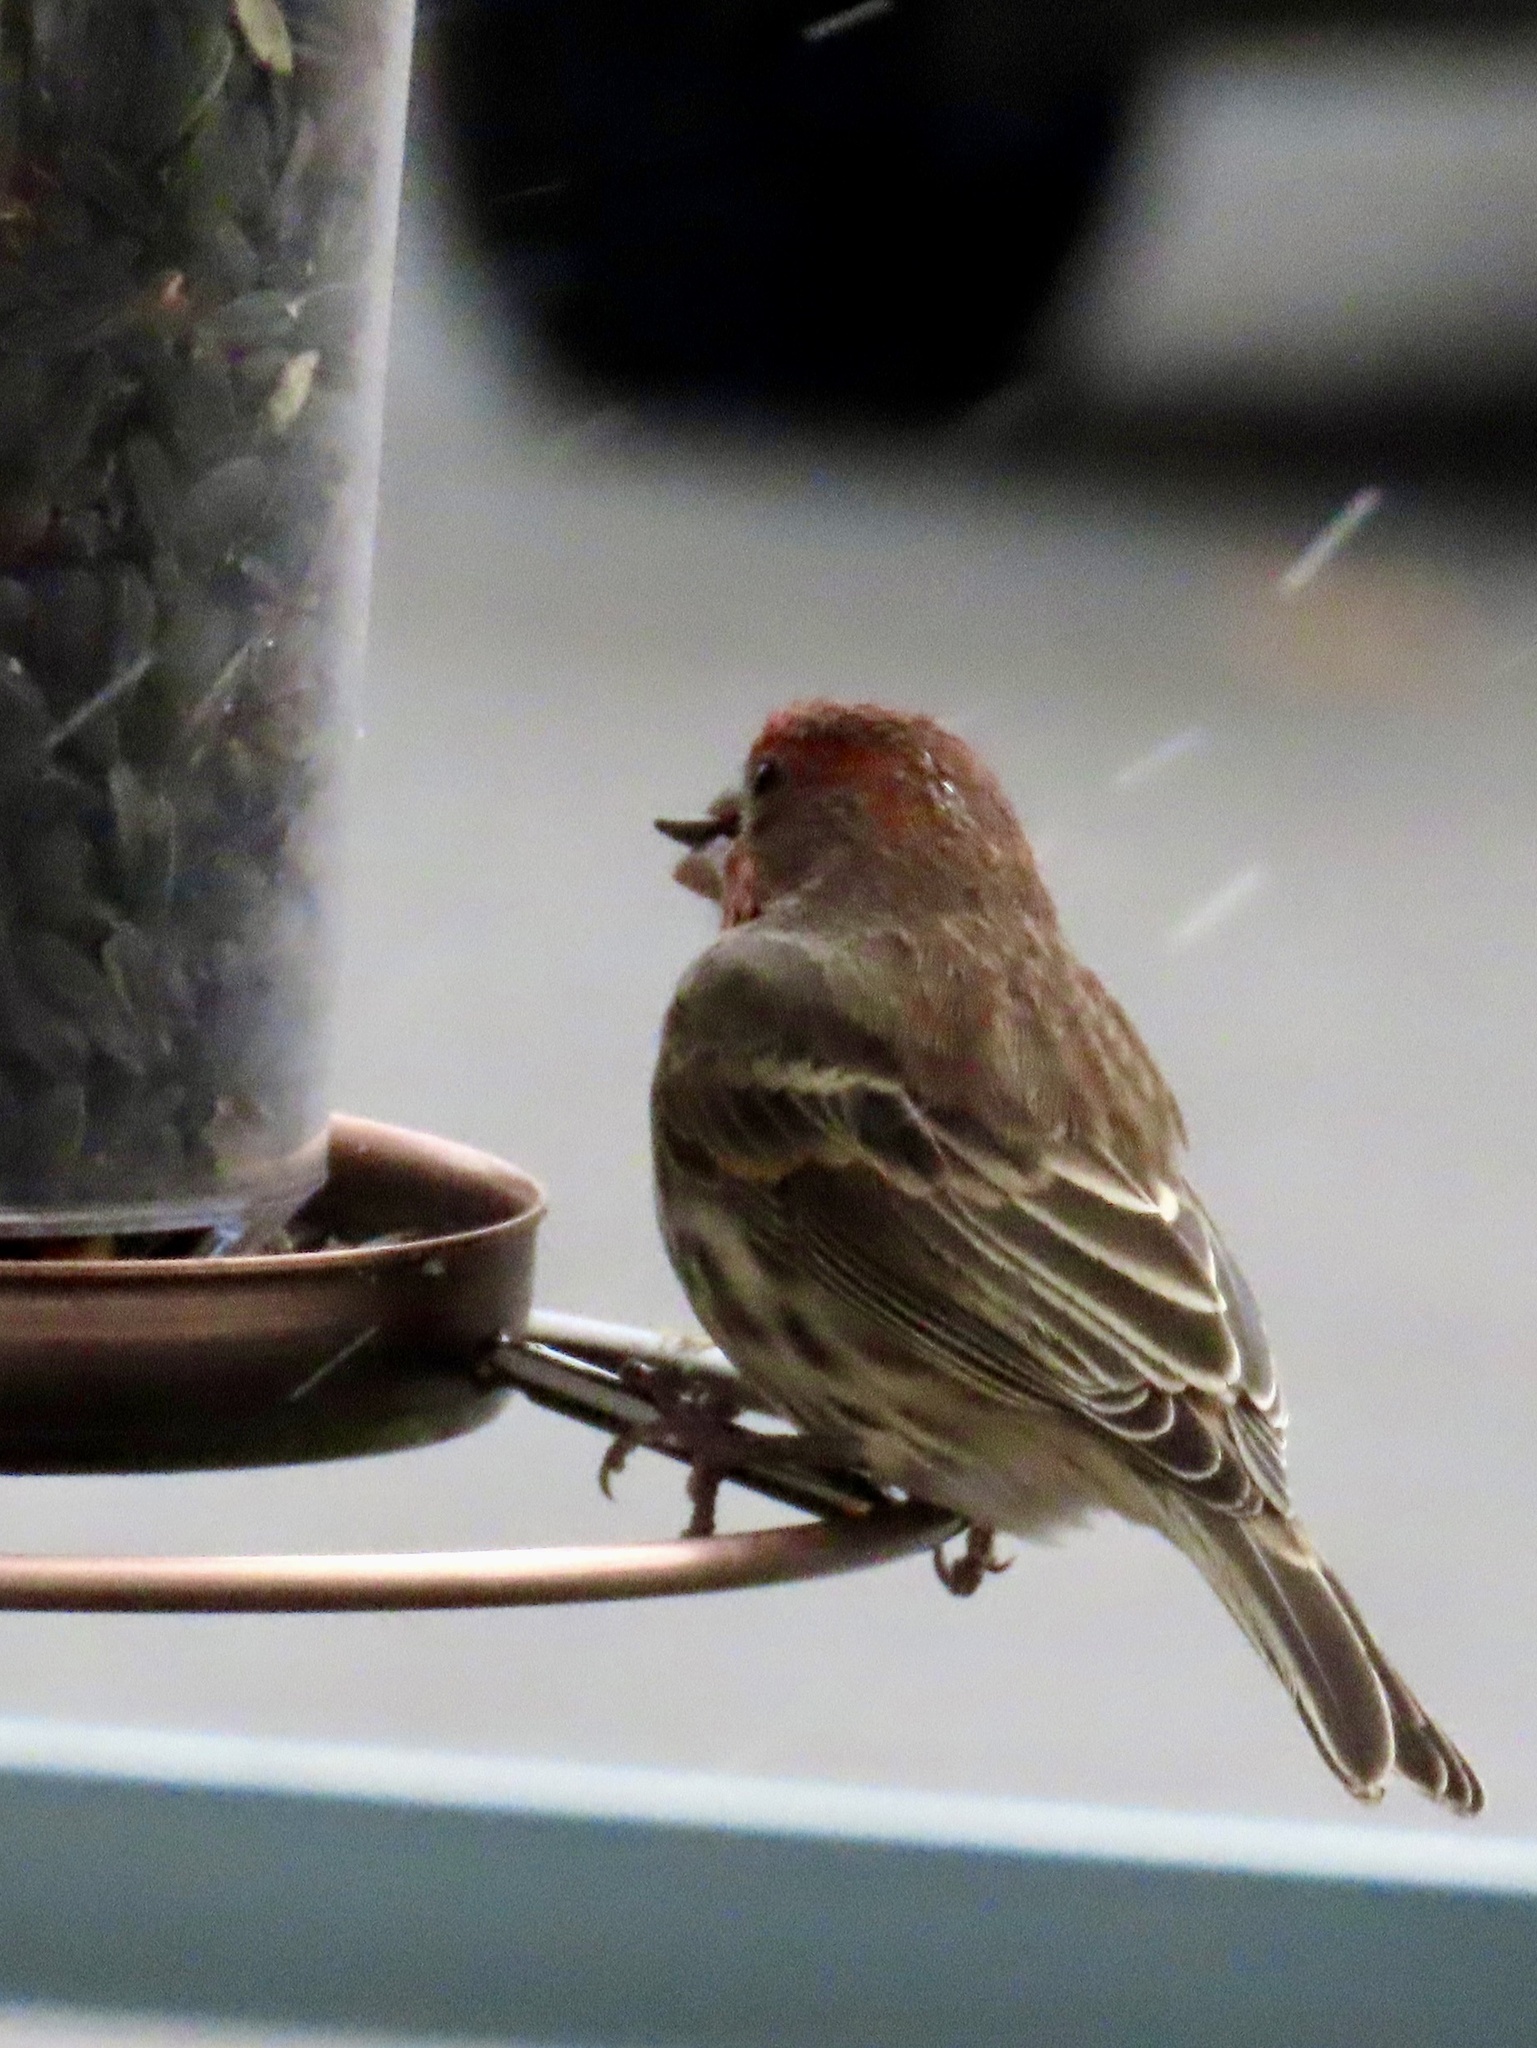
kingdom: Animalia
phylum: Chordata
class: Aves
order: Passeriformes
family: Fringillidae
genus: Haemorhous
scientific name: Haemorhous mexicanus
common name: House finch
